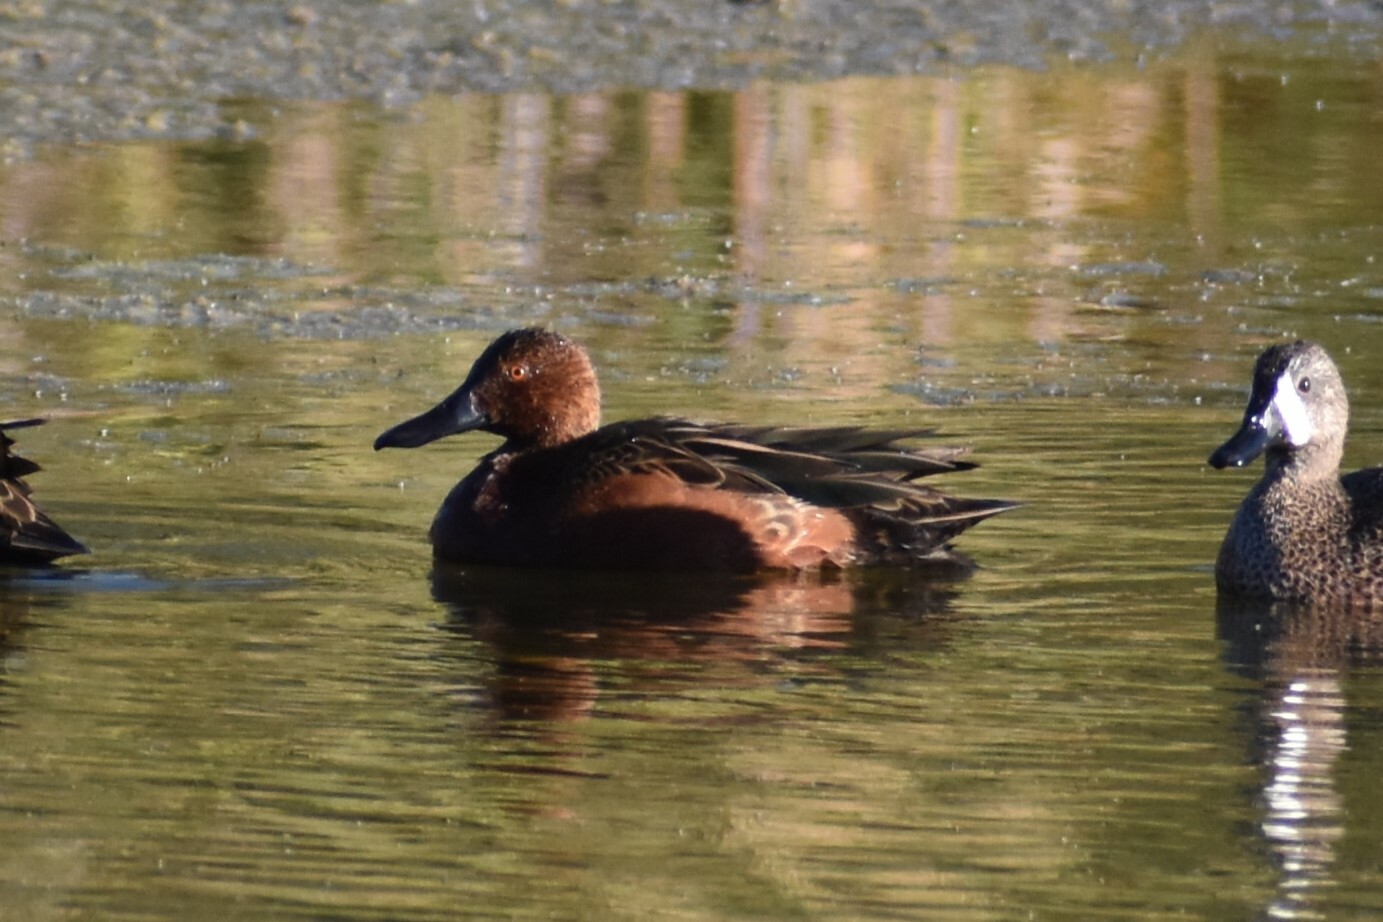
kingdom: Animalia
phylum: Chordata
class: Aves
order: Anseriformes
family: Anatidae
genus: Spatula
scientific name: Spatula cyanoptera
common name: Cinnamon teal
